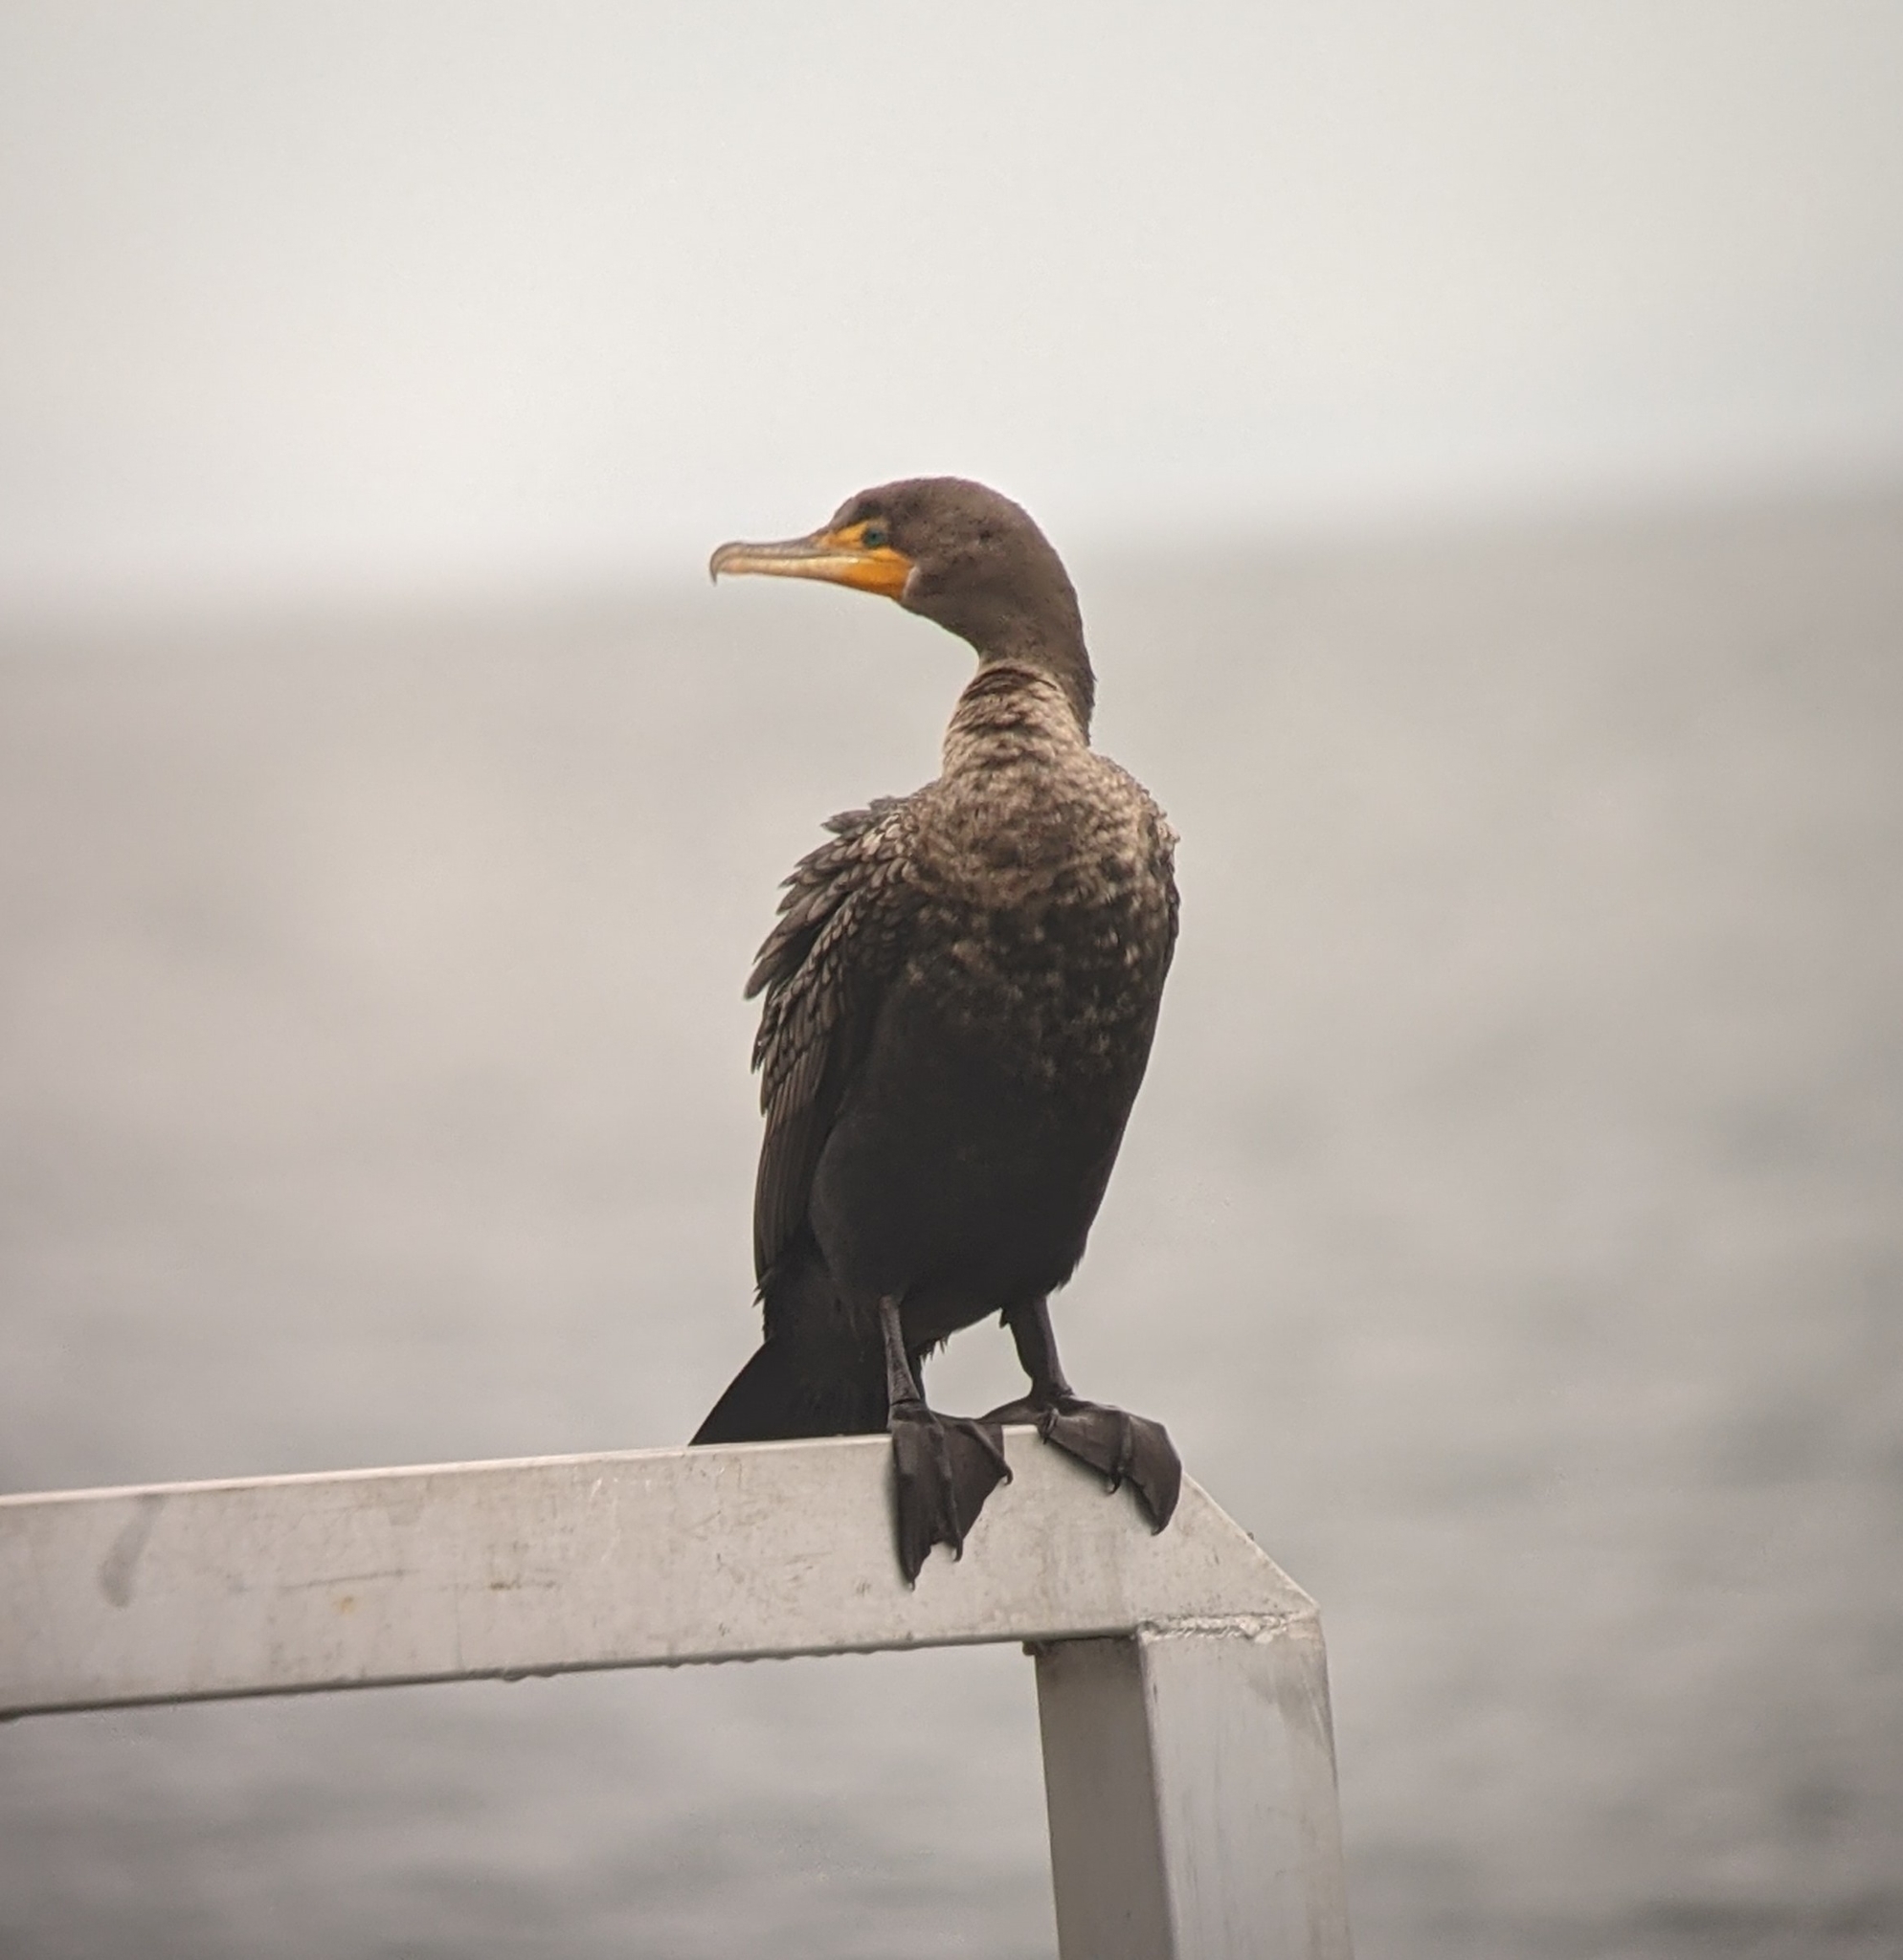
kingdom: Animalia
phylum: Chordata
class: Aves
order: Suliformes
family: Phalacrocoracidae
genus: Phalacrocorax
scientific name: Phalacrocorax auritus
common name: Double-crested cormorant
